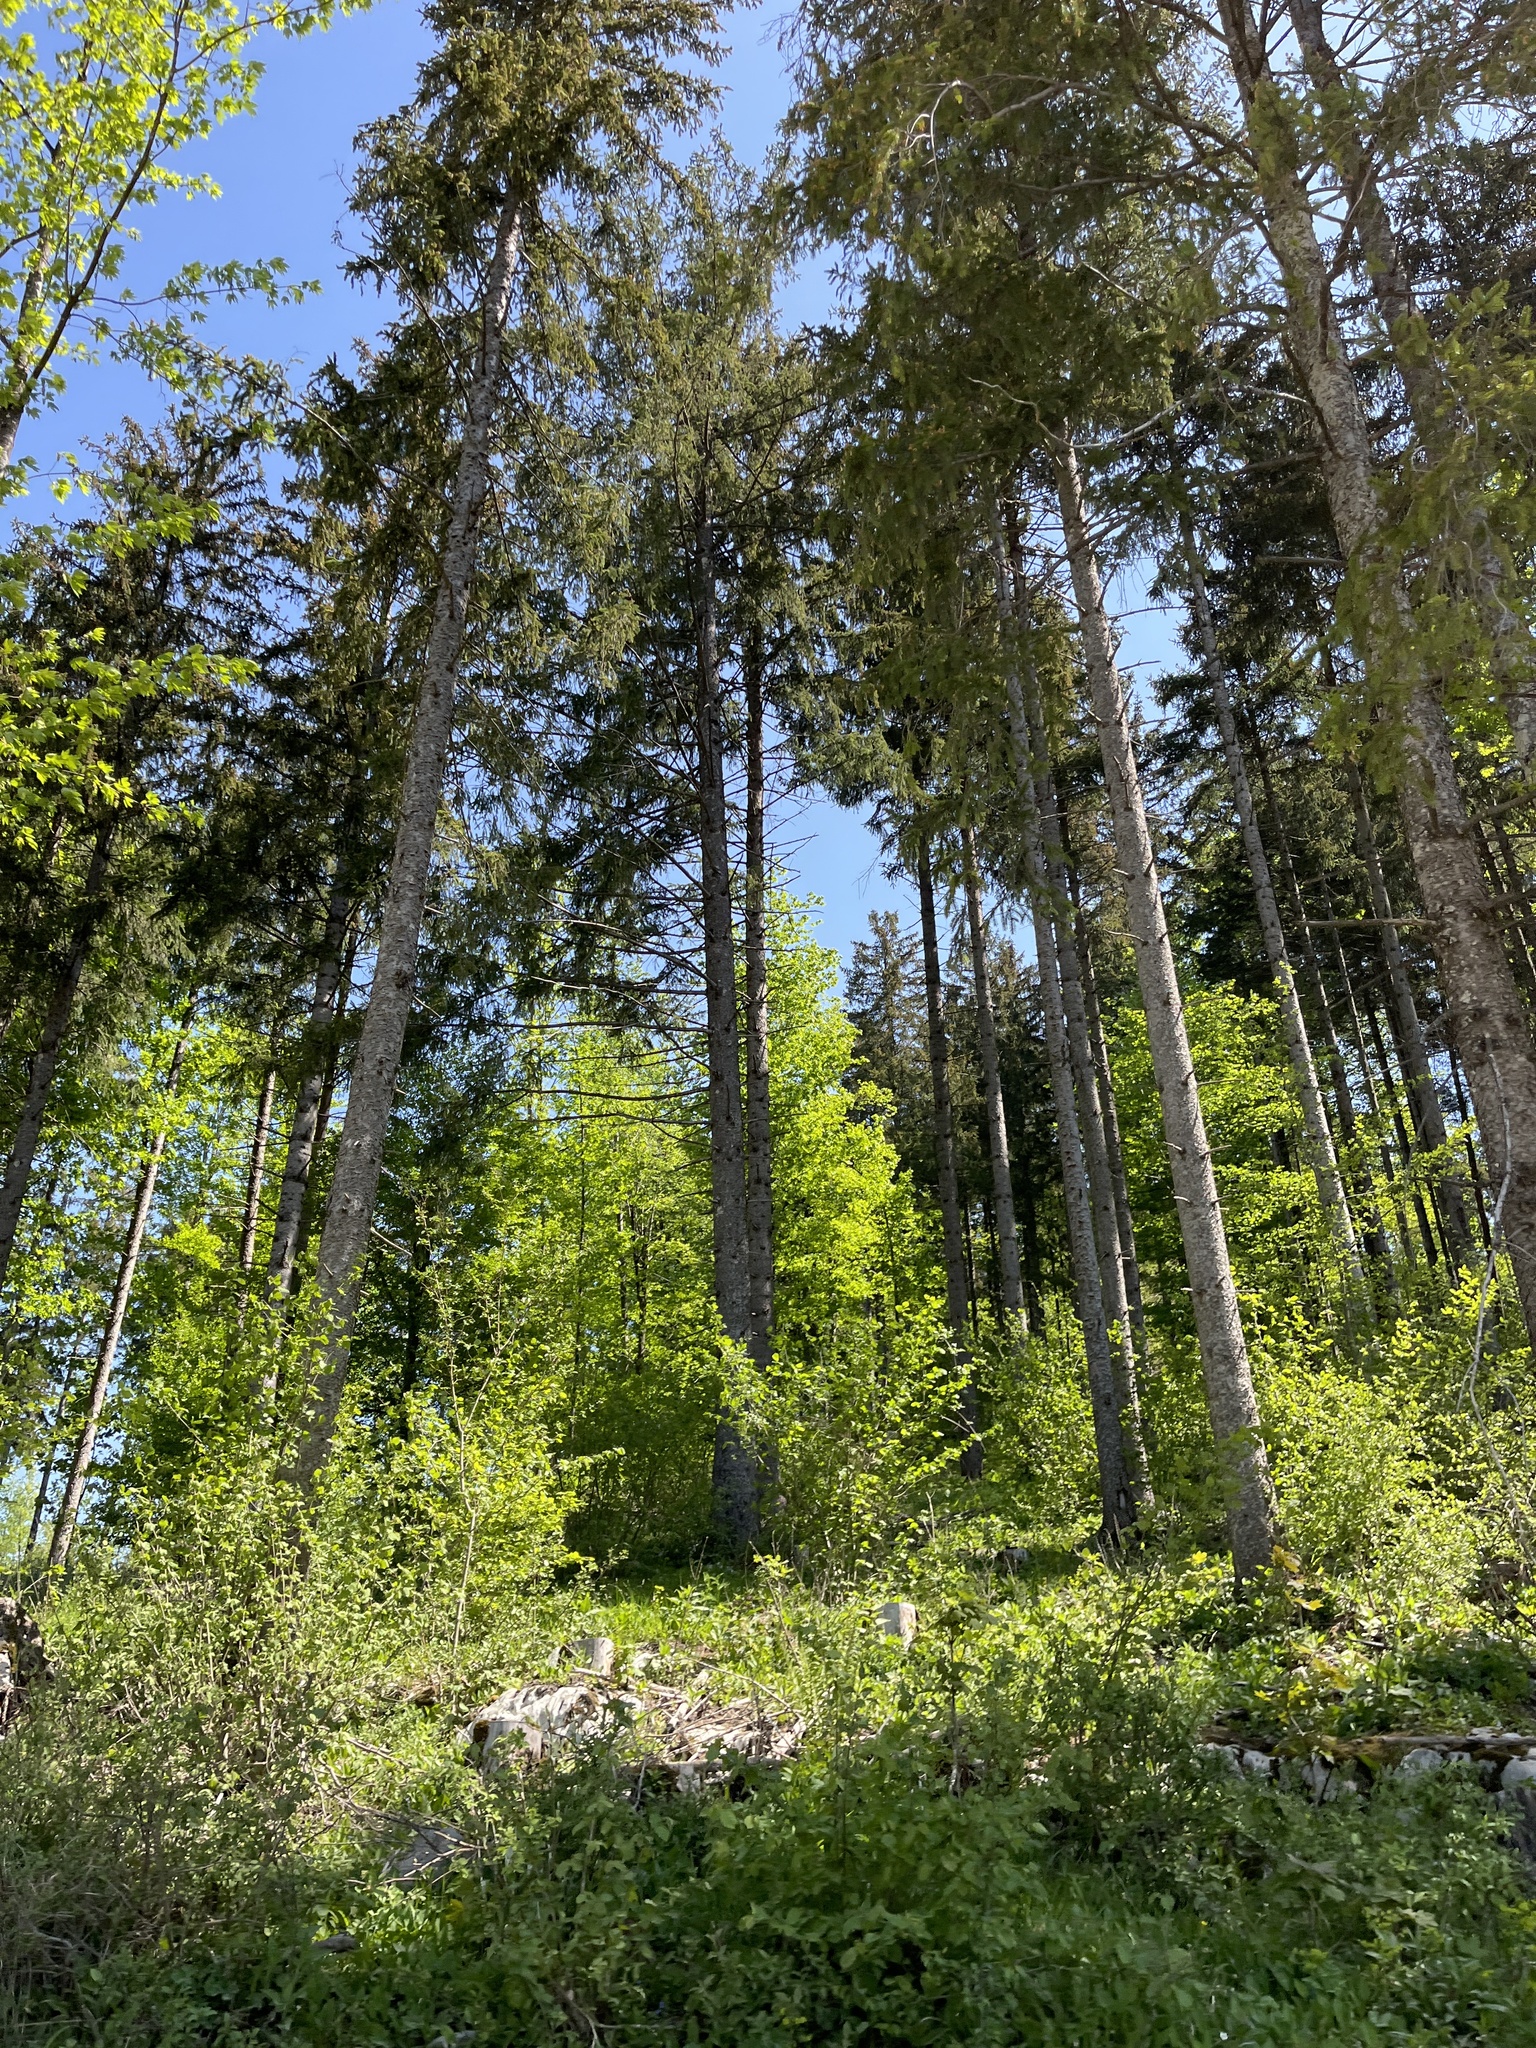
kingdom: Plantae
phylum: Tracheophyta
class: Pinopsida
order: Pinales
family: Pinaceae
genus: Picea
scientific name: Picea abies
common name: Norway spruce
